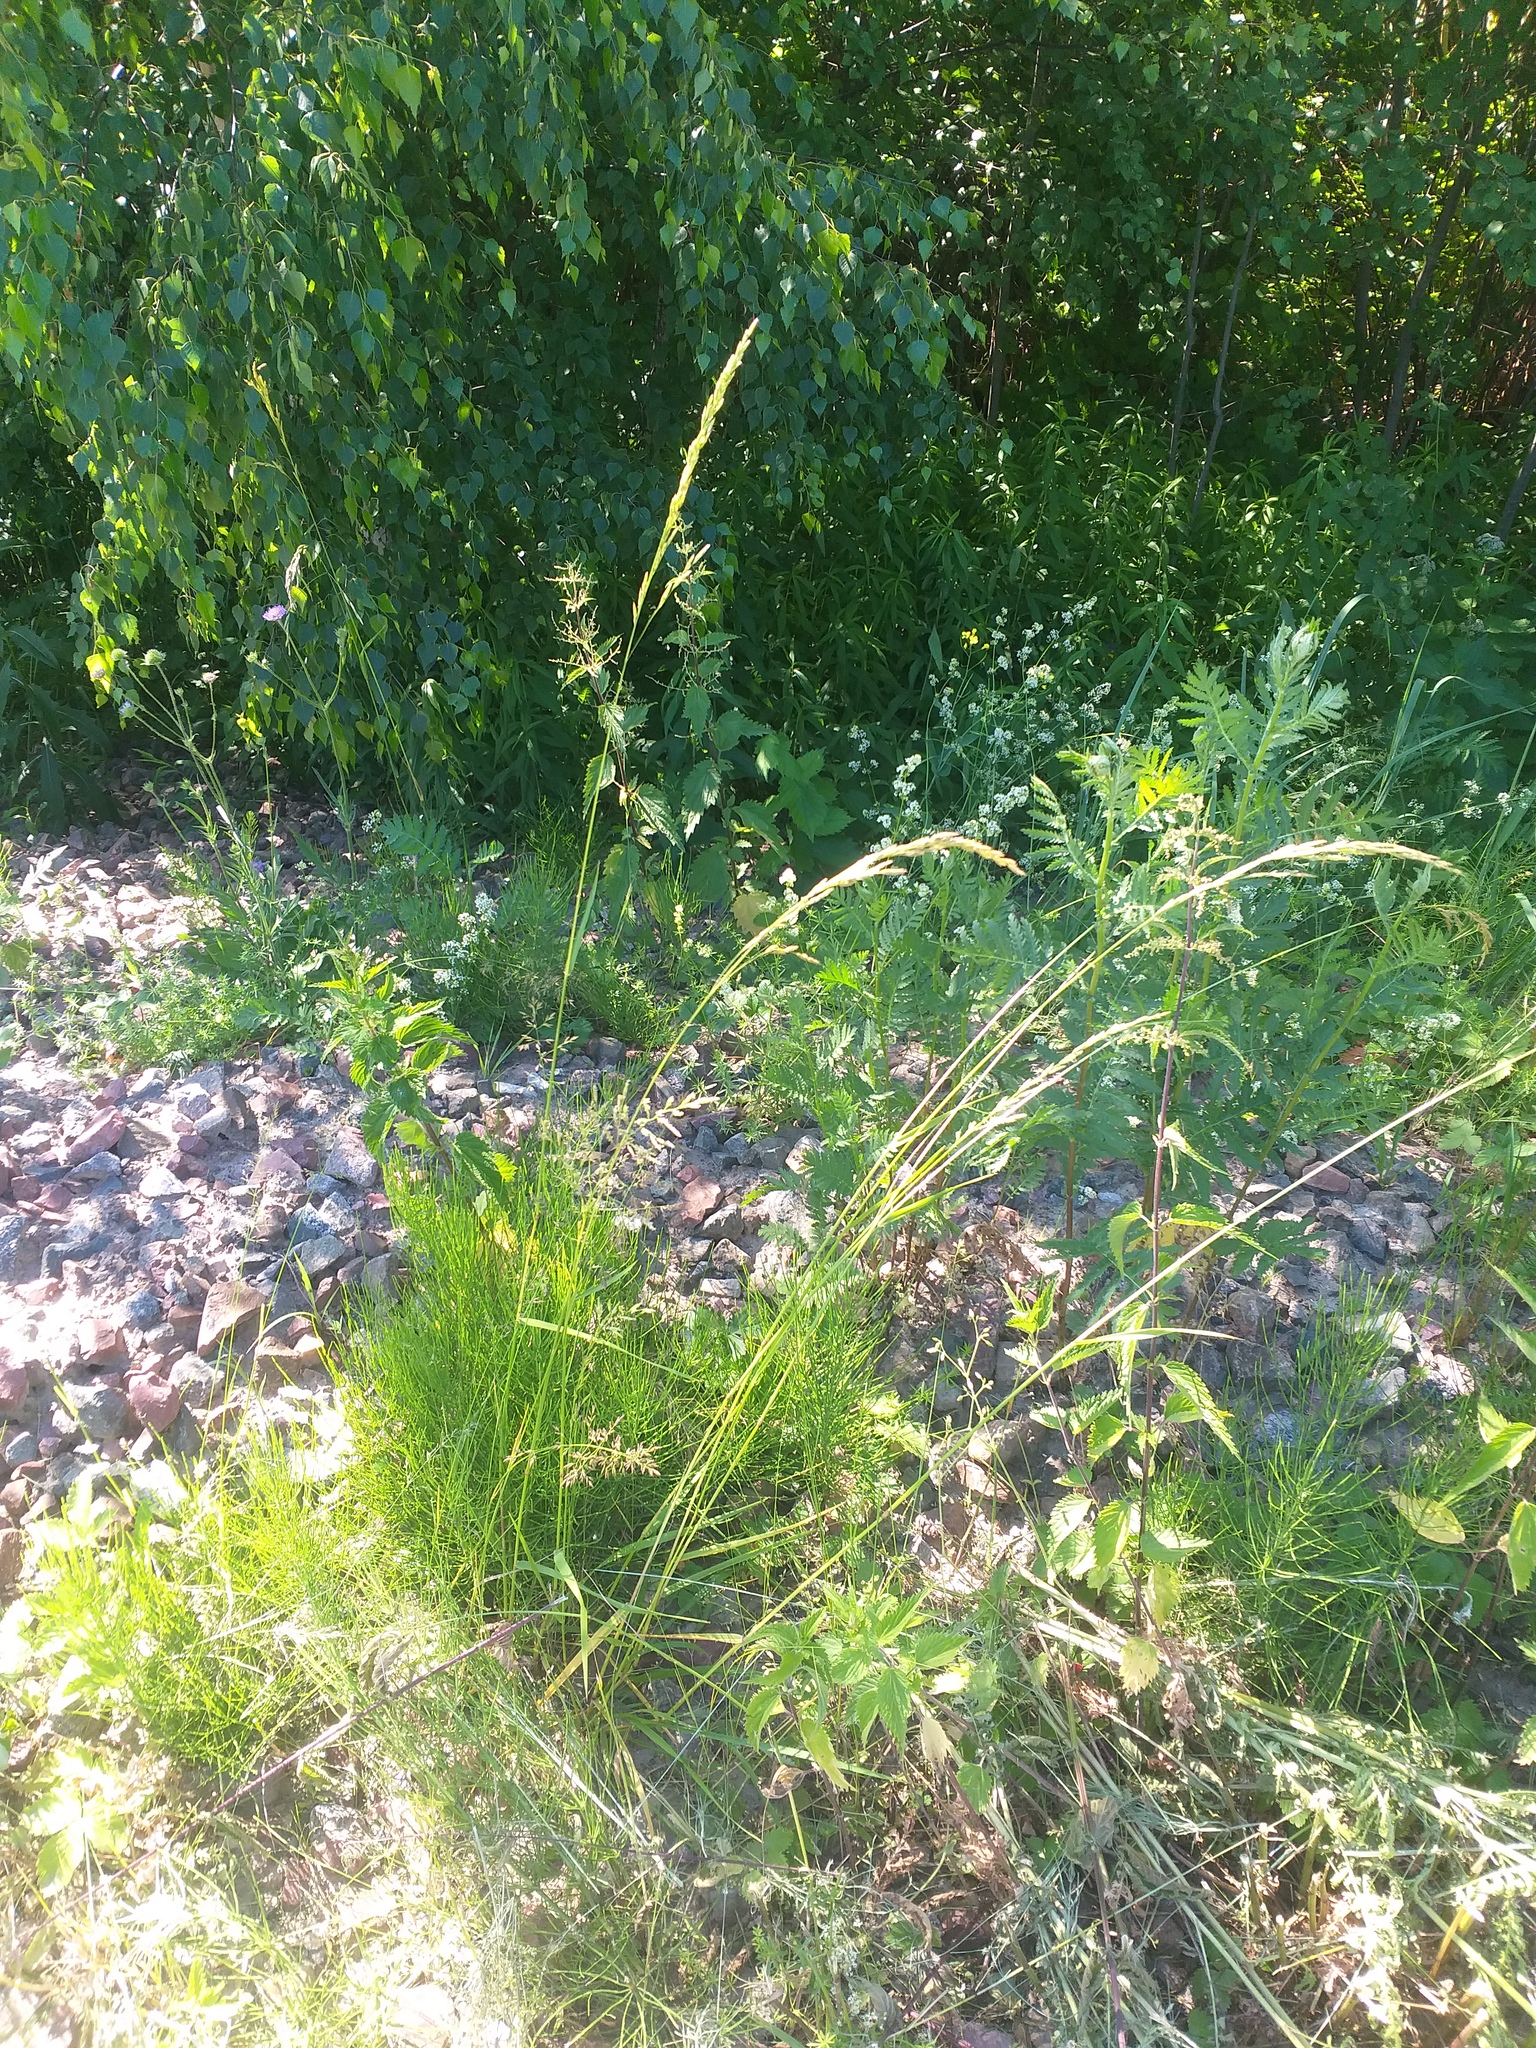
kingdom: Plantae
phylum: Tracheophyta
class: Liliopsida
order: Poales
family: Poaceae
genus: Lolium
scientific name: Lolium pratense
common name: Dover grass
